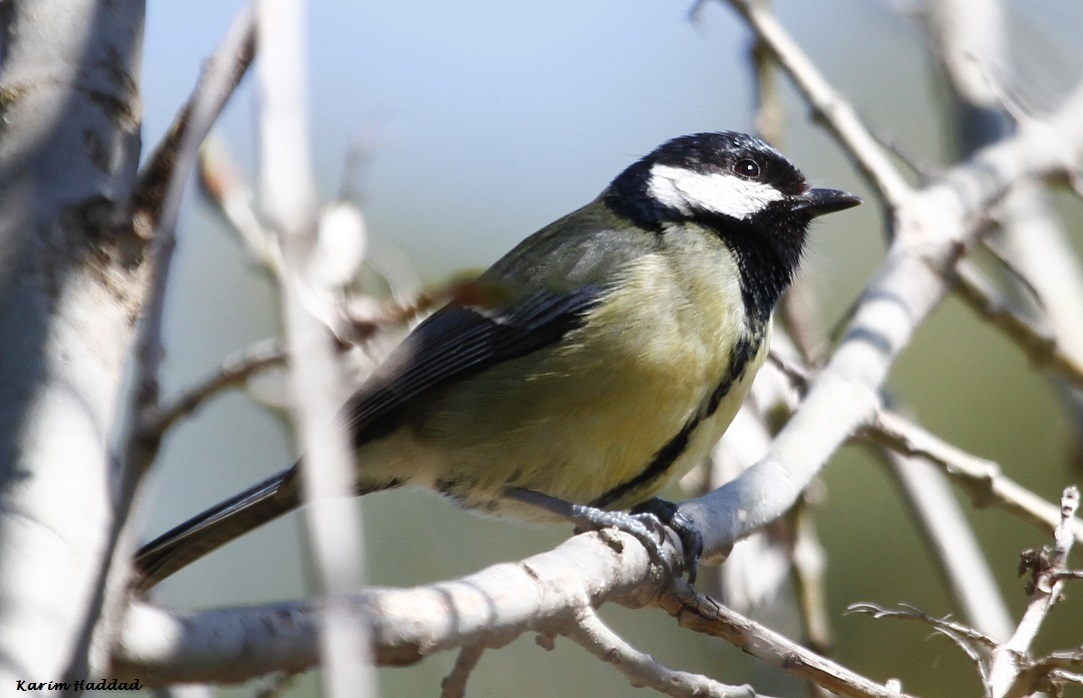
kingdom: Animalia
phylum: Chordata
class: Aves
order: Passeriformes
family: Paridae
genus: Parus
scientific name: Parus major
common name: Great tit
